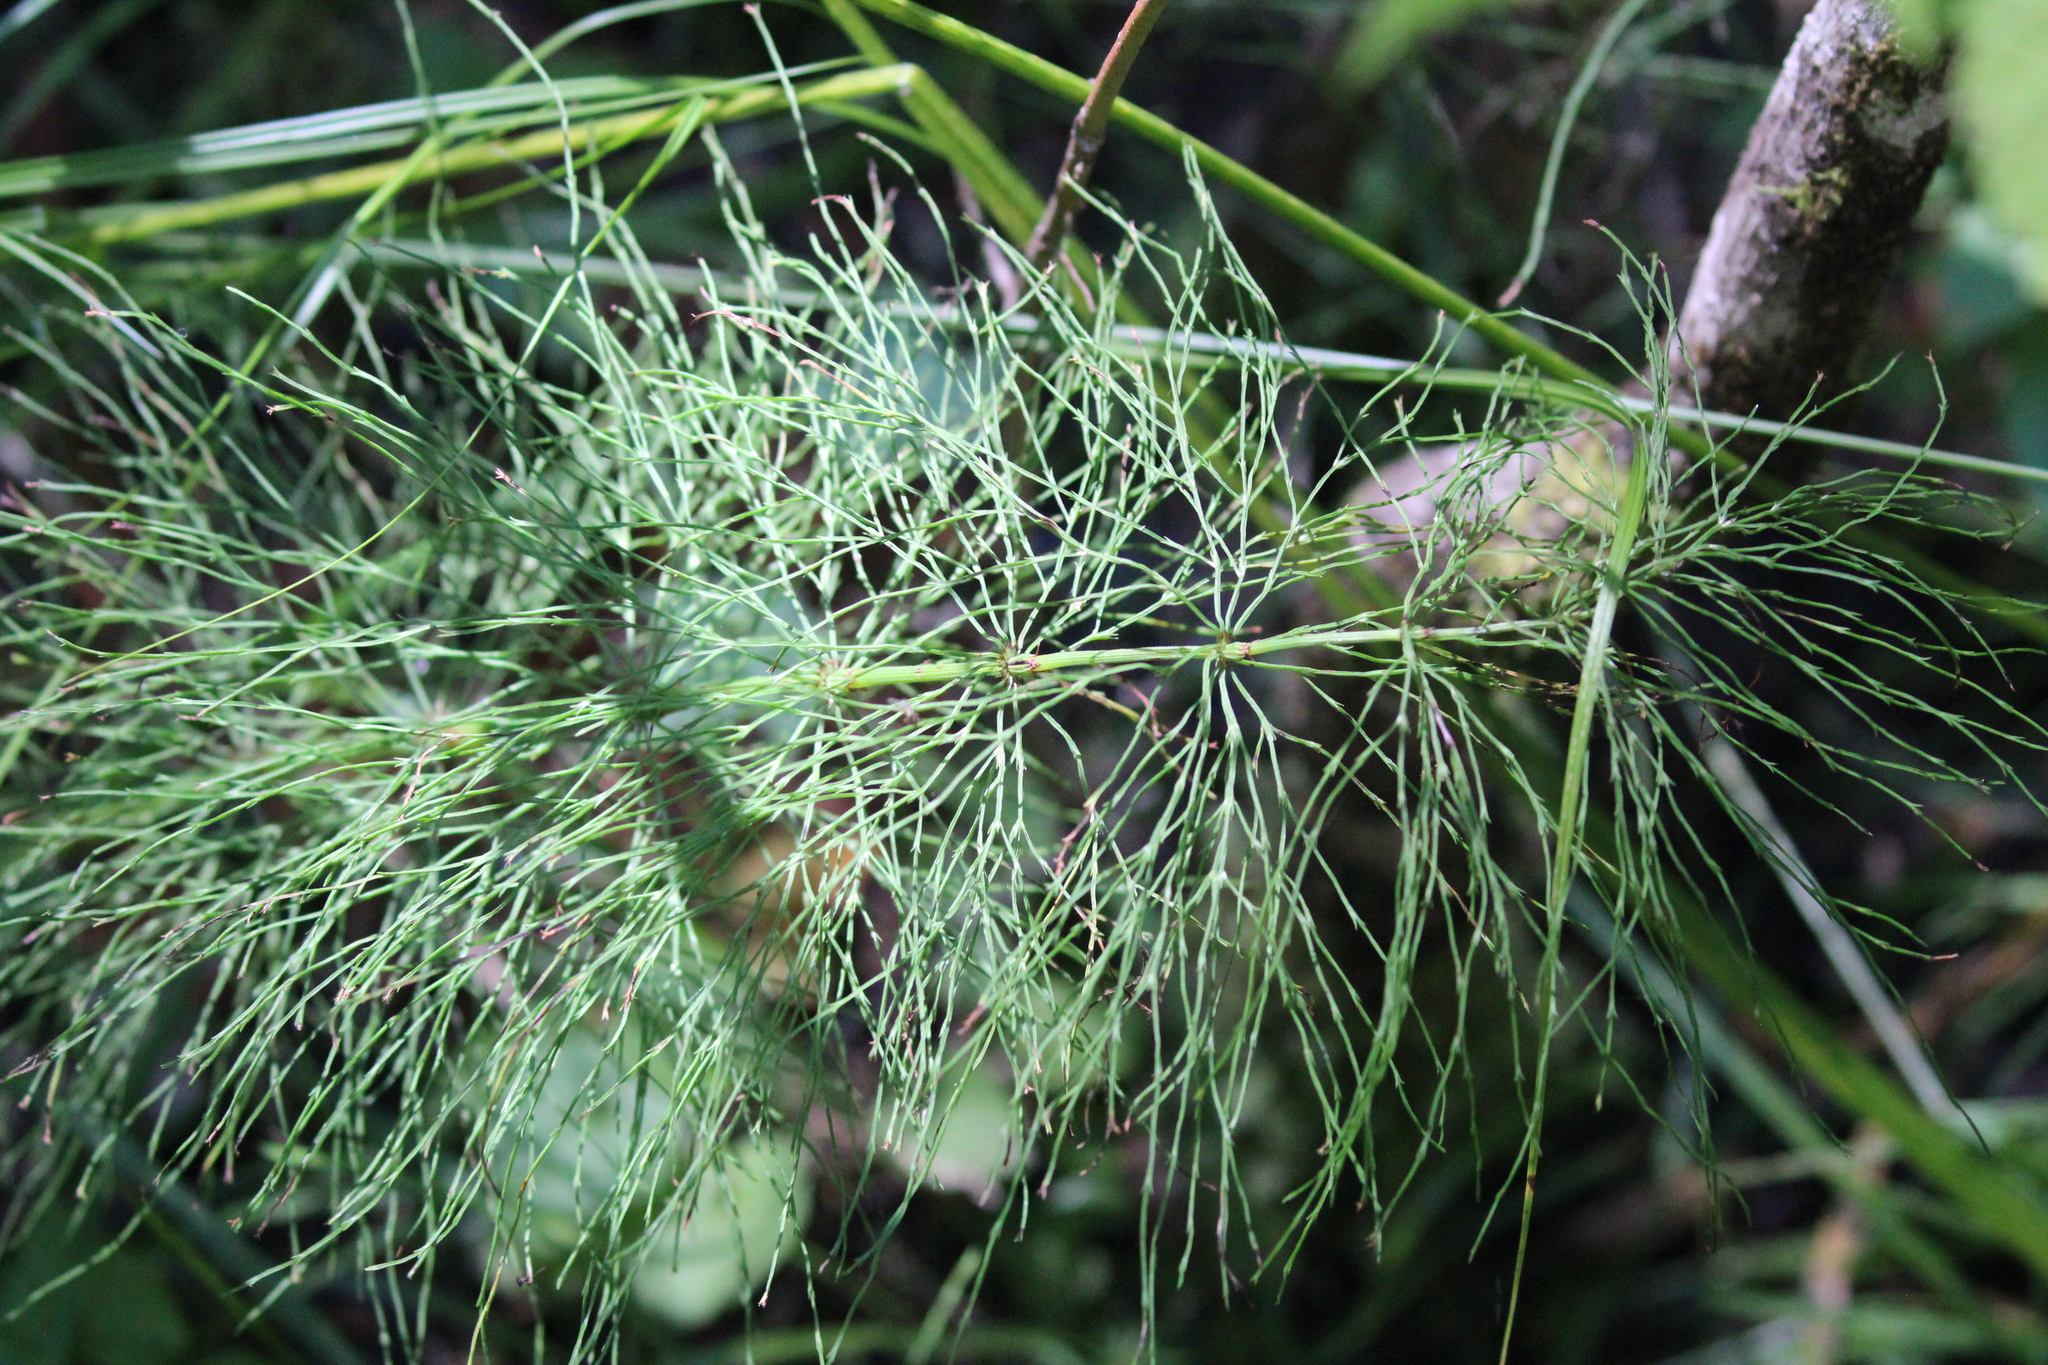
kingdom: Plantae
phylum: Tracheophyta
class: Polypodiopsida
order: Equisetales
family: Equisetaceae
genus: Equisetum
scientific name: Equisetum sylvaticum
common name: Wood horsetail
